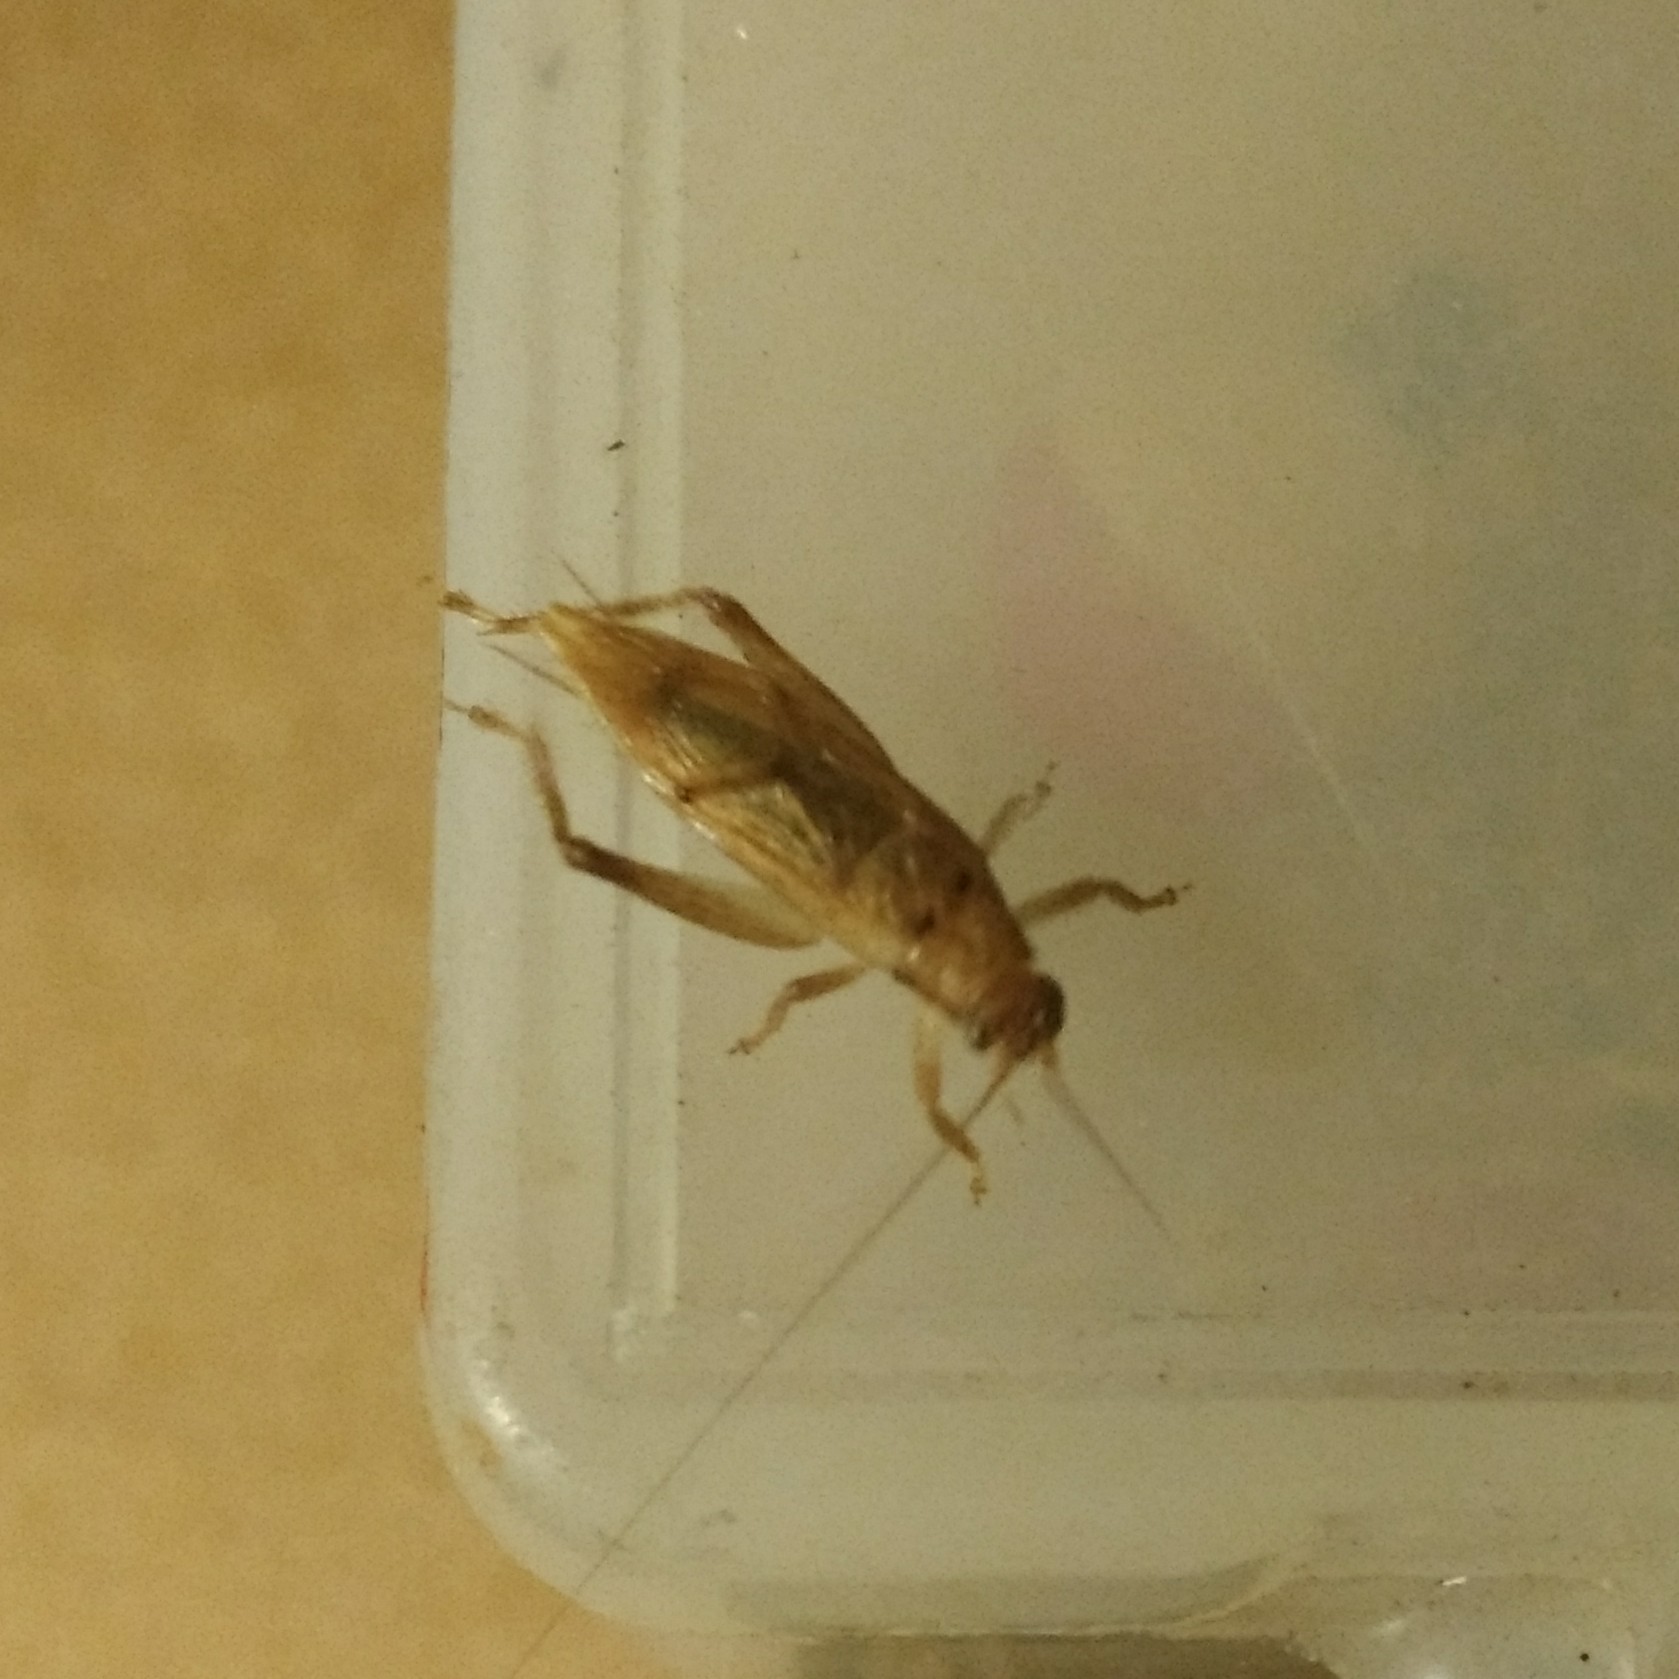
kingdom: Animalia
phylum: Arthropoda
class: Insecta
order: Orthoptera
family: Gryllidae
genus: Hapithus
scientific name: Hapithus saltator
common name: Jumping bush cricket
